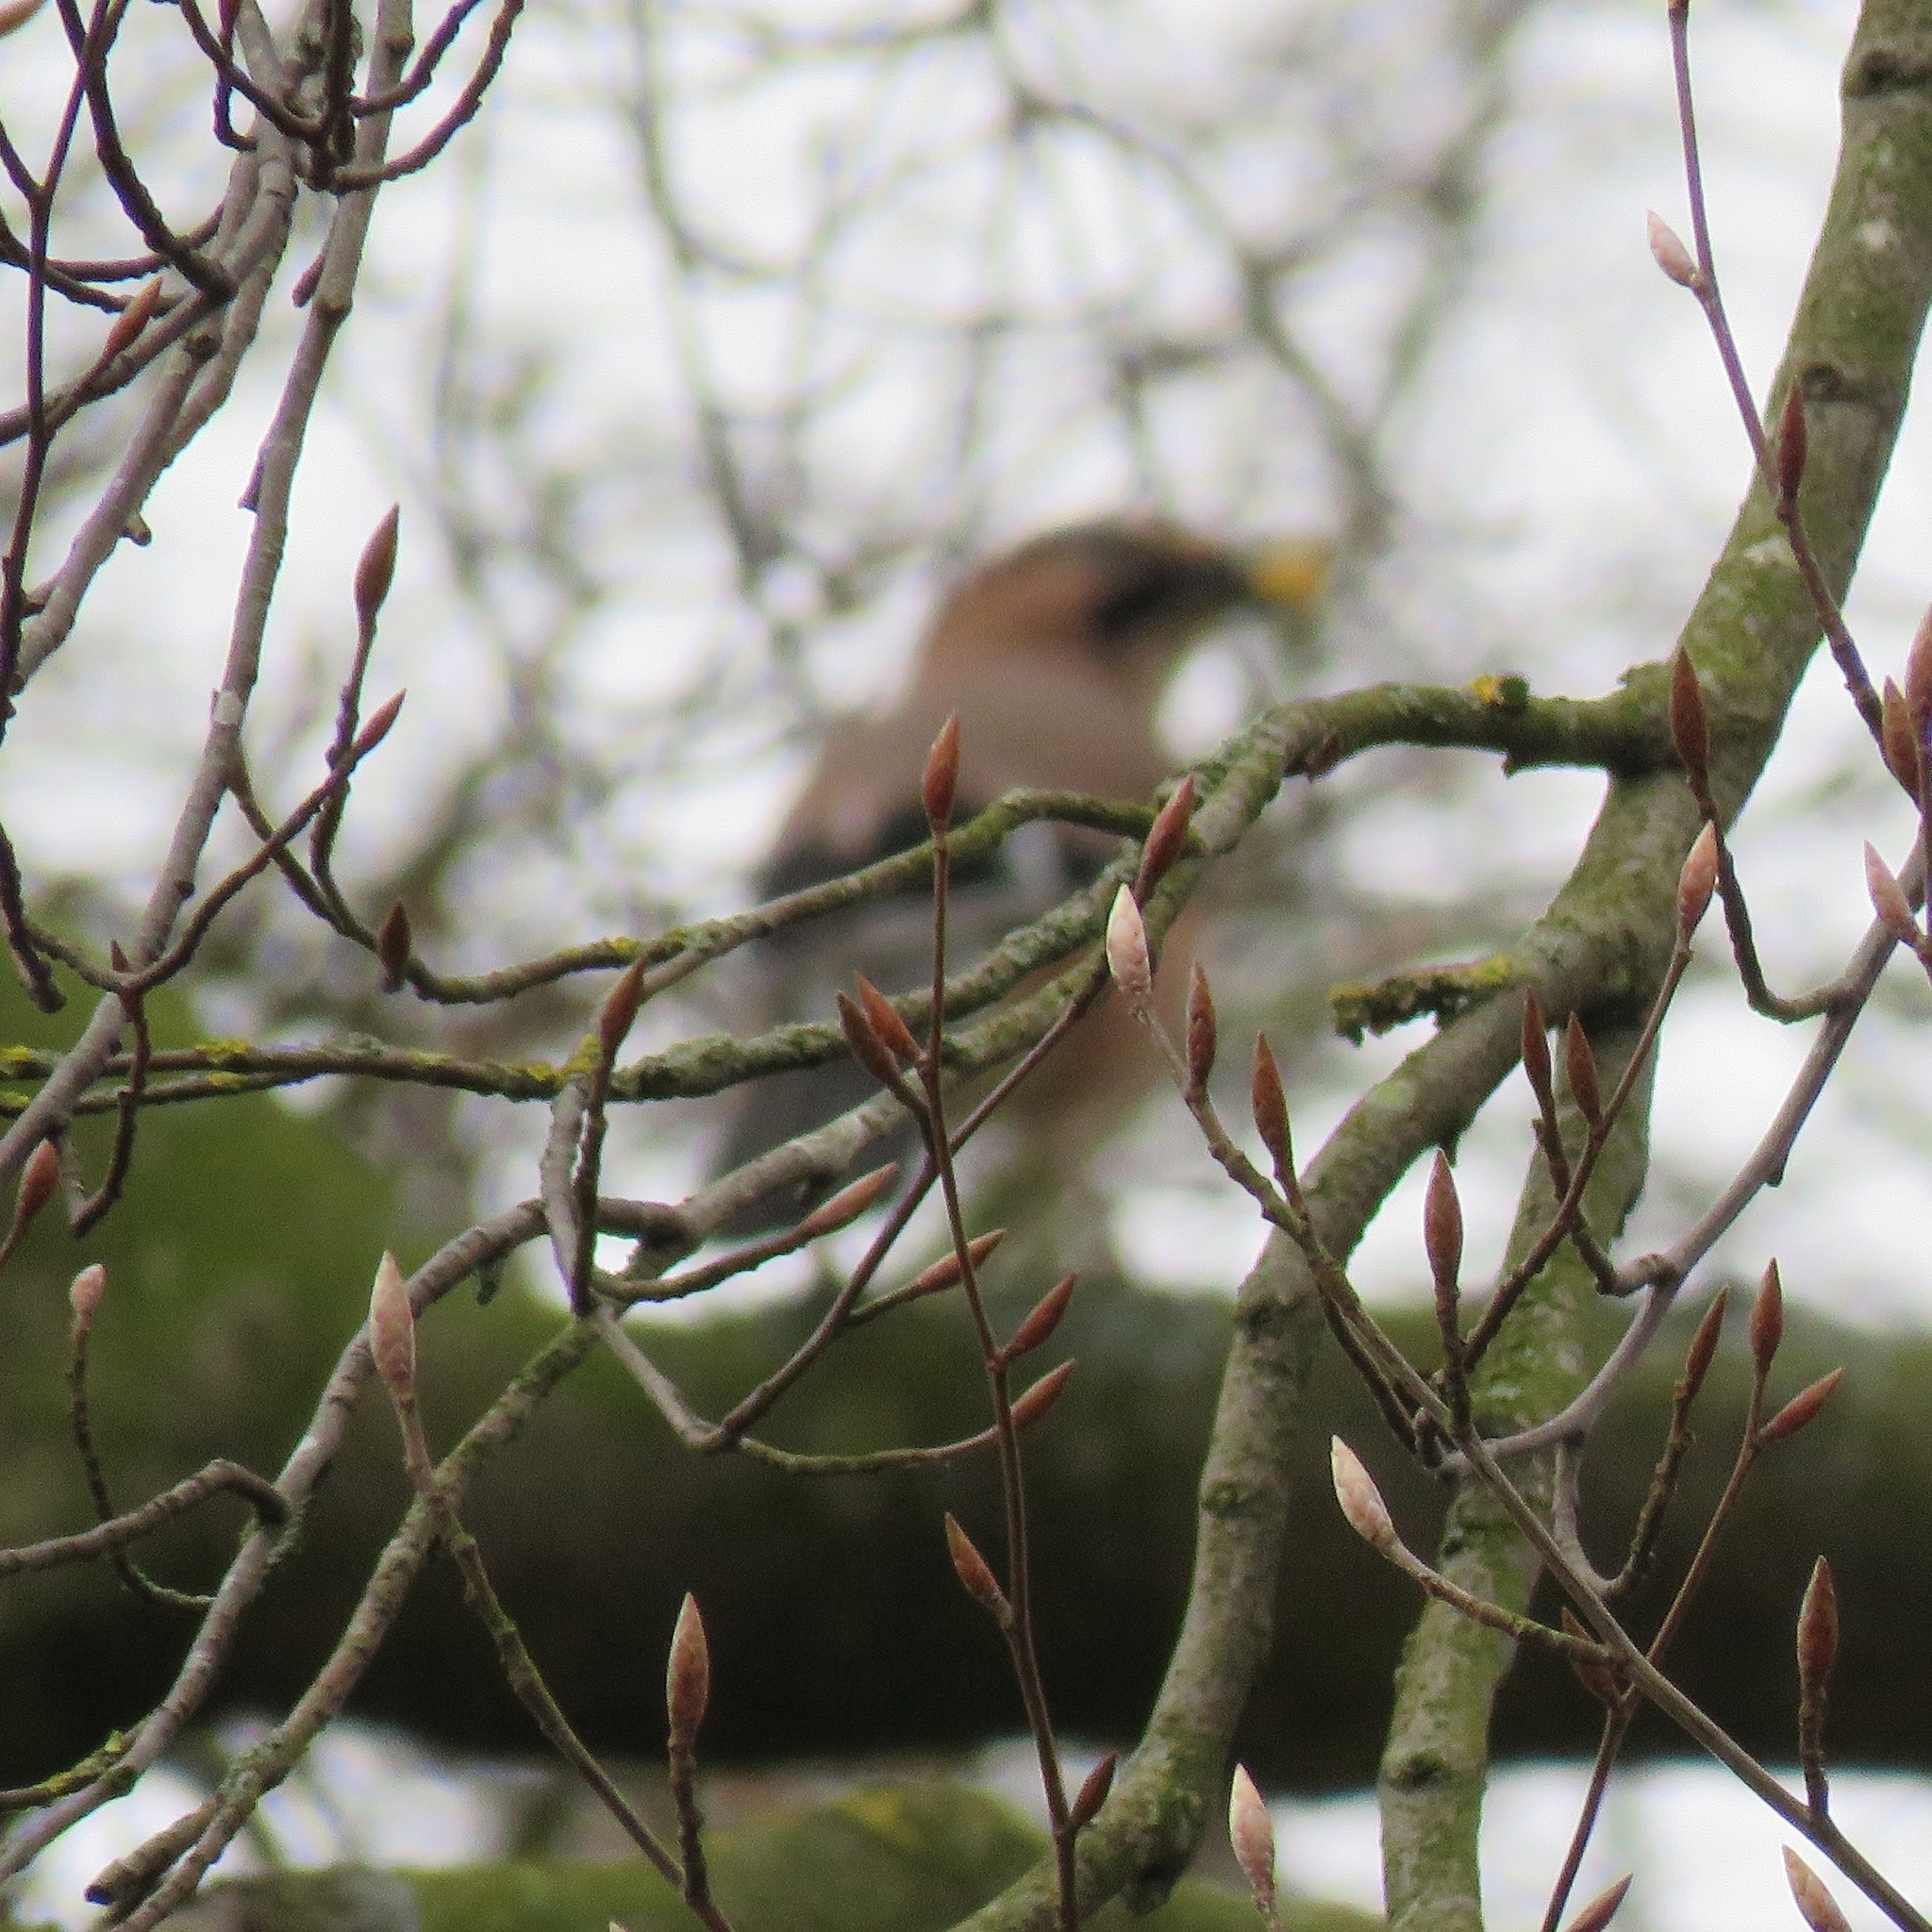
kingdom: Animalia
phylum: Chordata
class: Aves
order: Passeriformes
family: Corvidae
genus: Garrulus
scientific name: Garrulus glandarius
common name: Eurasian jay
